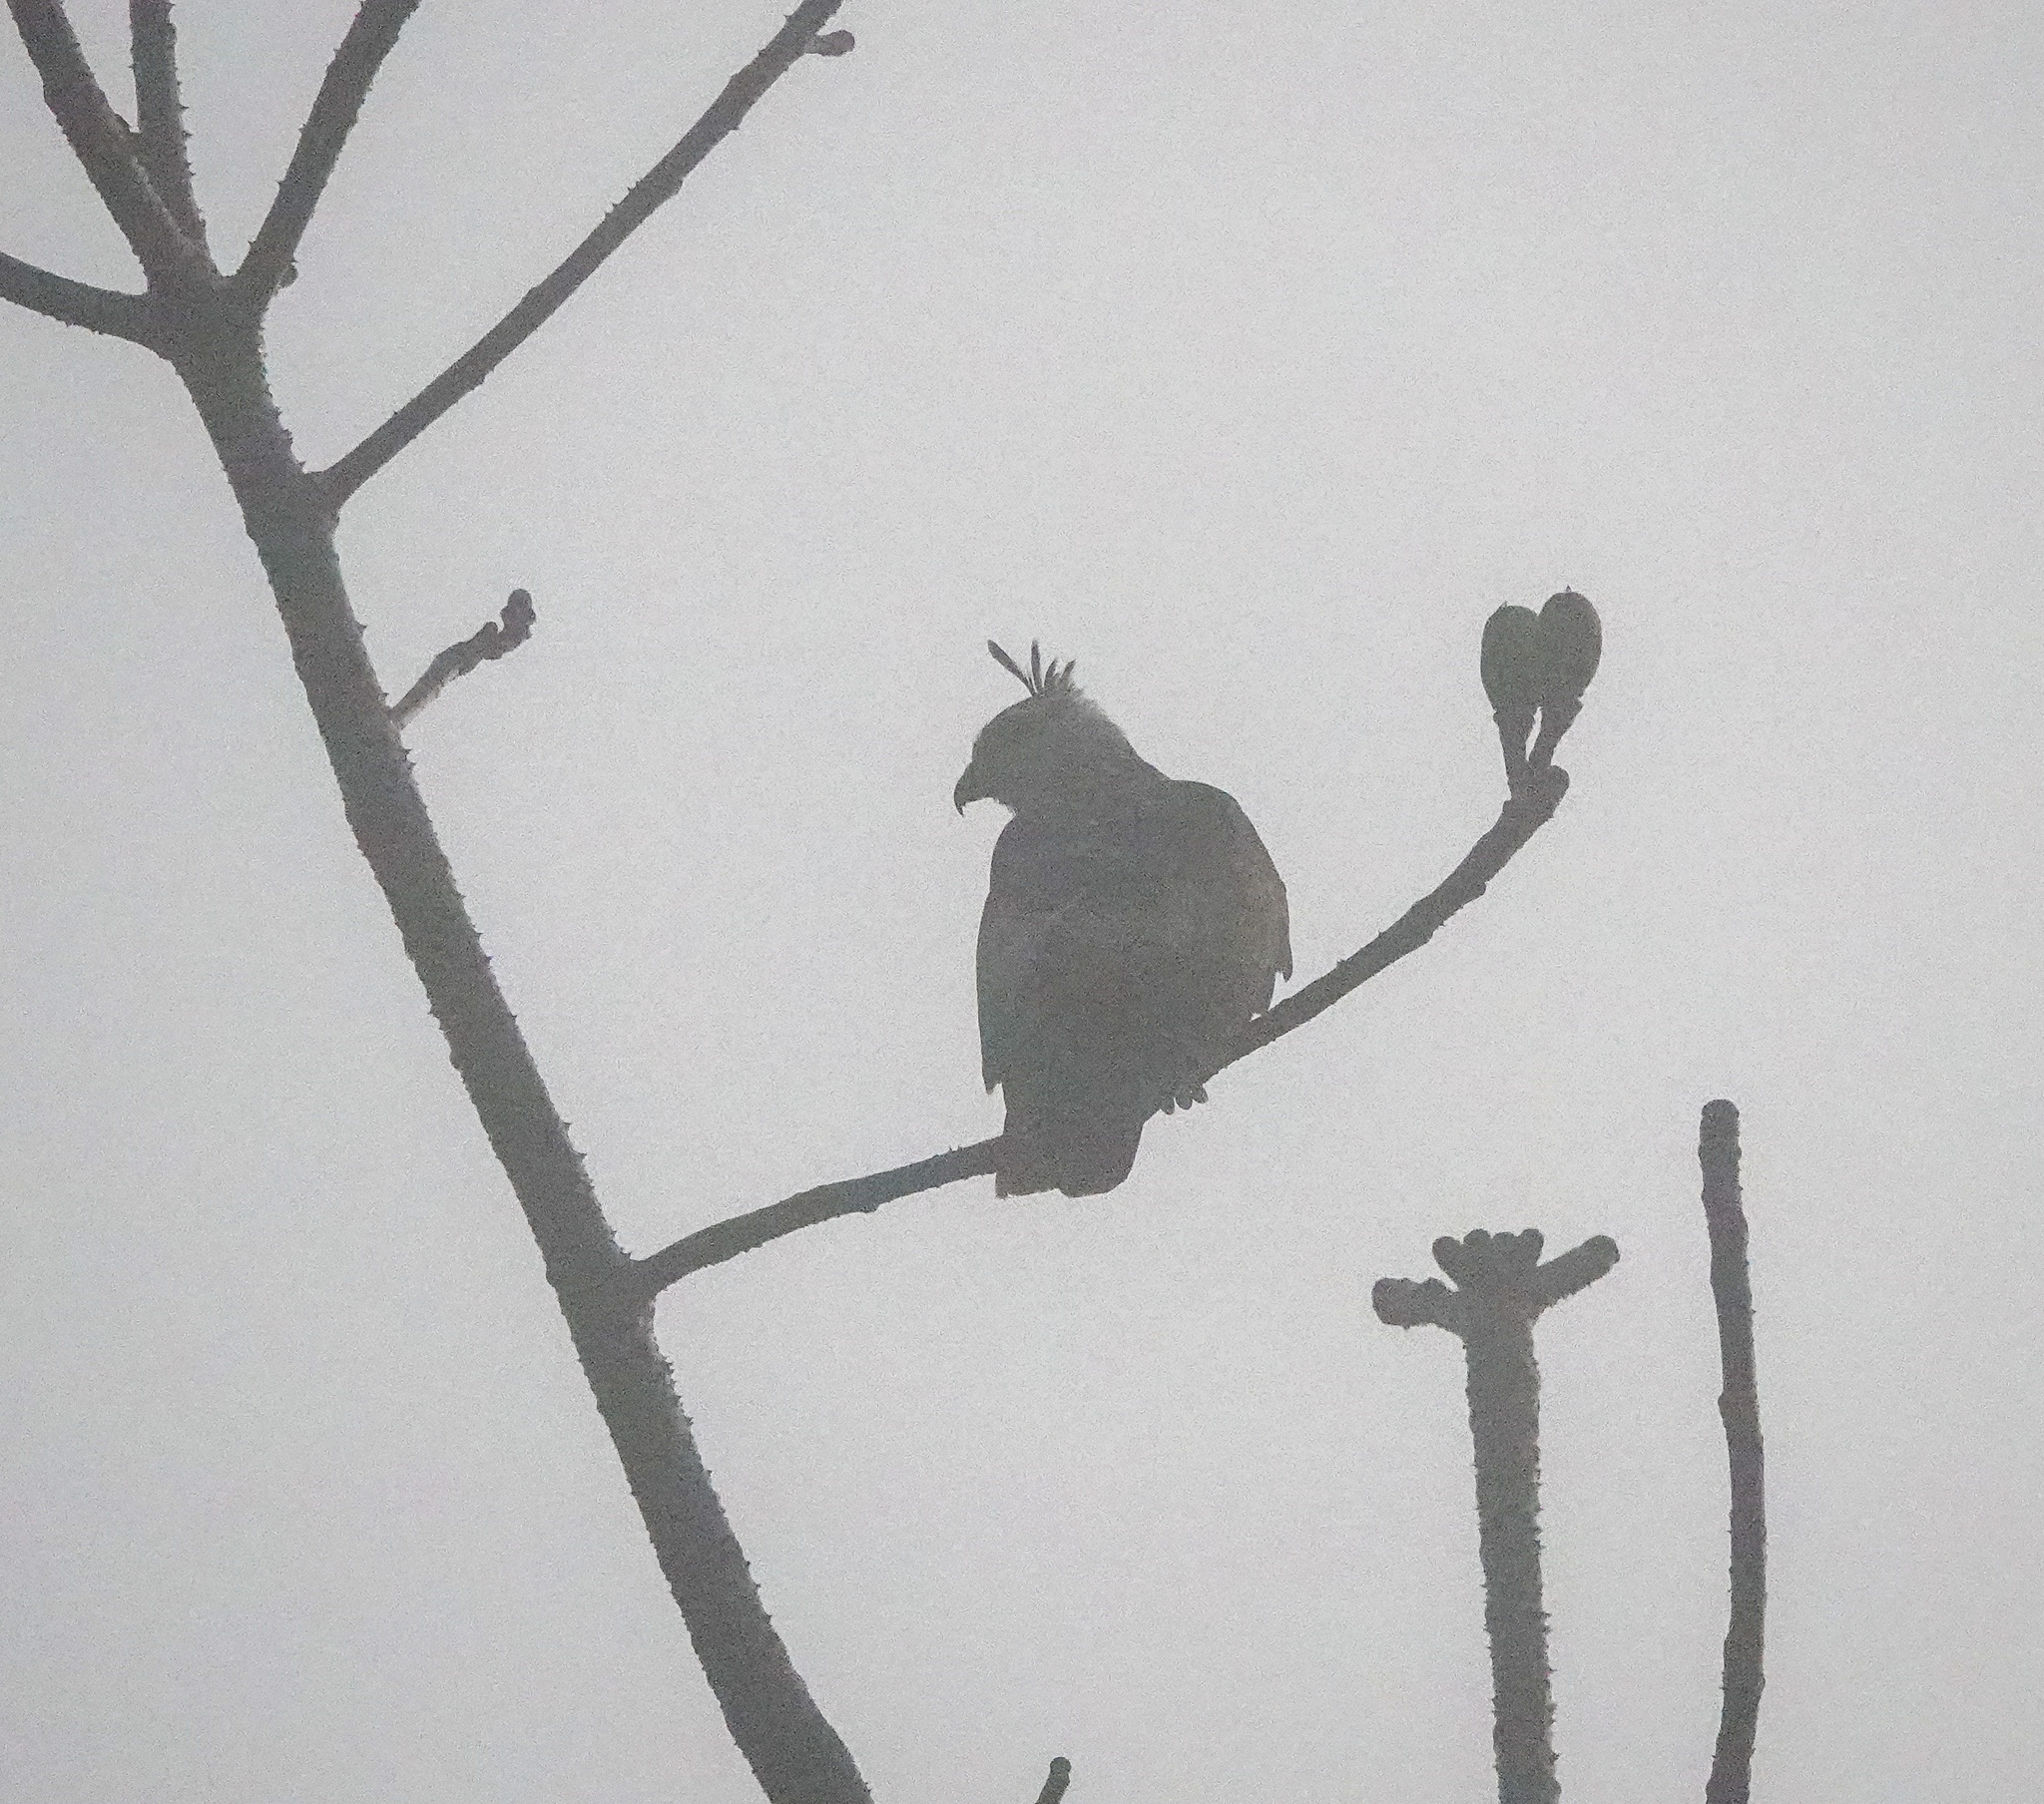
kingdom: Animalia
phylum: Chordata
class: Aves
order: Accipitriformes
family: Accipitridae
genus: Aviceda
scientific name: Aviceda jerdoni
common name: Jerdon's baza
